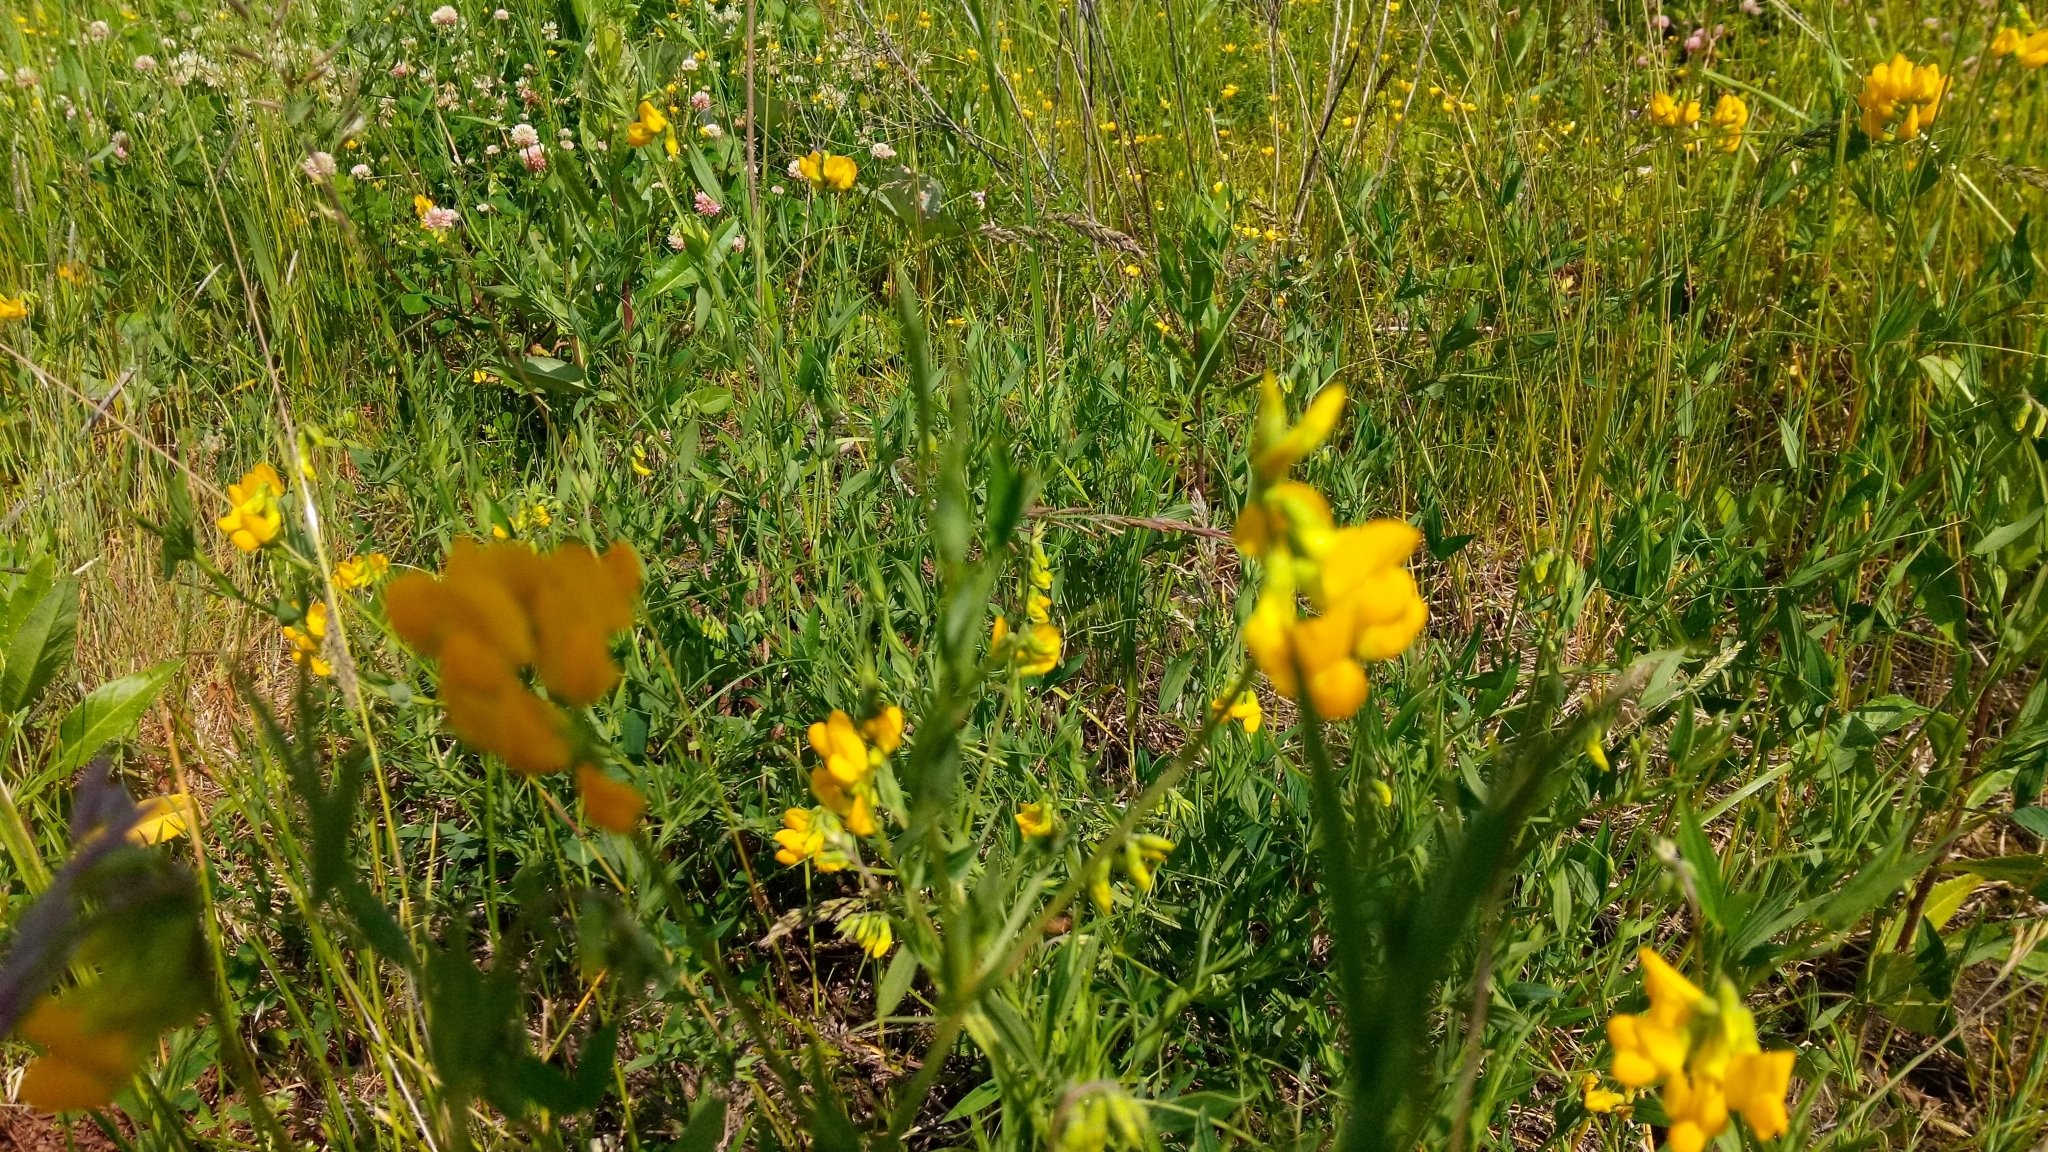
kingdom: Plantae
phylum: Tracheophyta
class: Magnoliopsida
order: Fabales
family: Fabaceae
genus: Lathyrus
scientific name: Lathyrus pratensis
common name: Meadow vetchling
